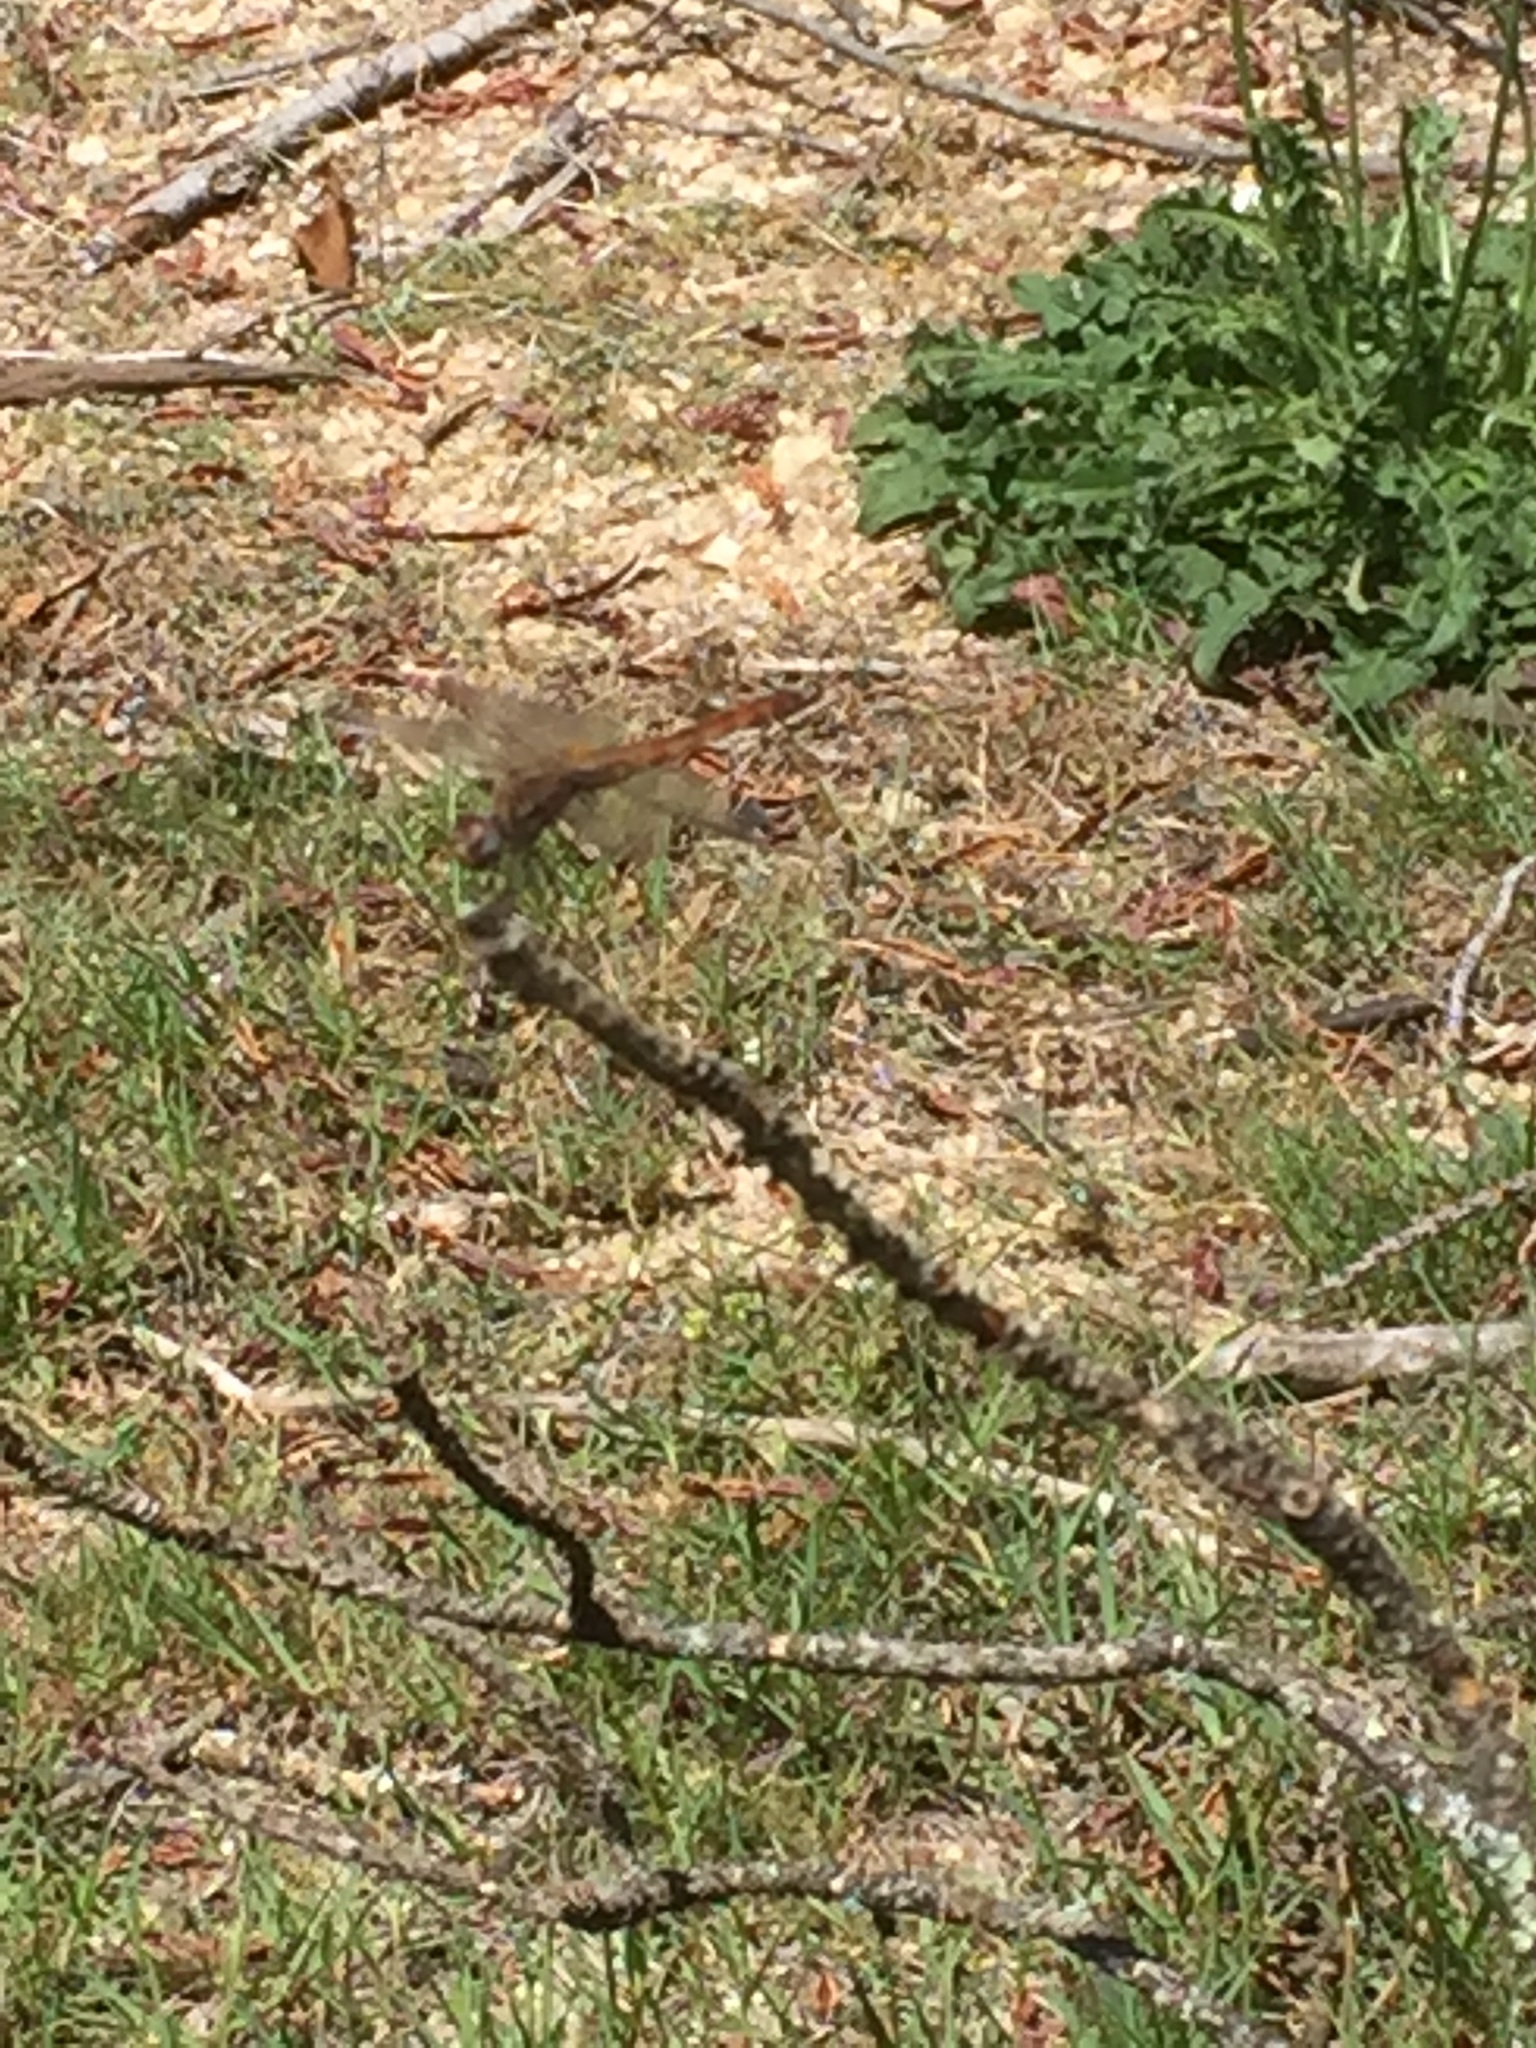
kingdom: Animalia
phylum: Arthropoda
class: Insecta
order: Odonata
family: Libellulidae
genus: Trithemis
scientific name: Trithemis annulata
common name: Violet dropwing
